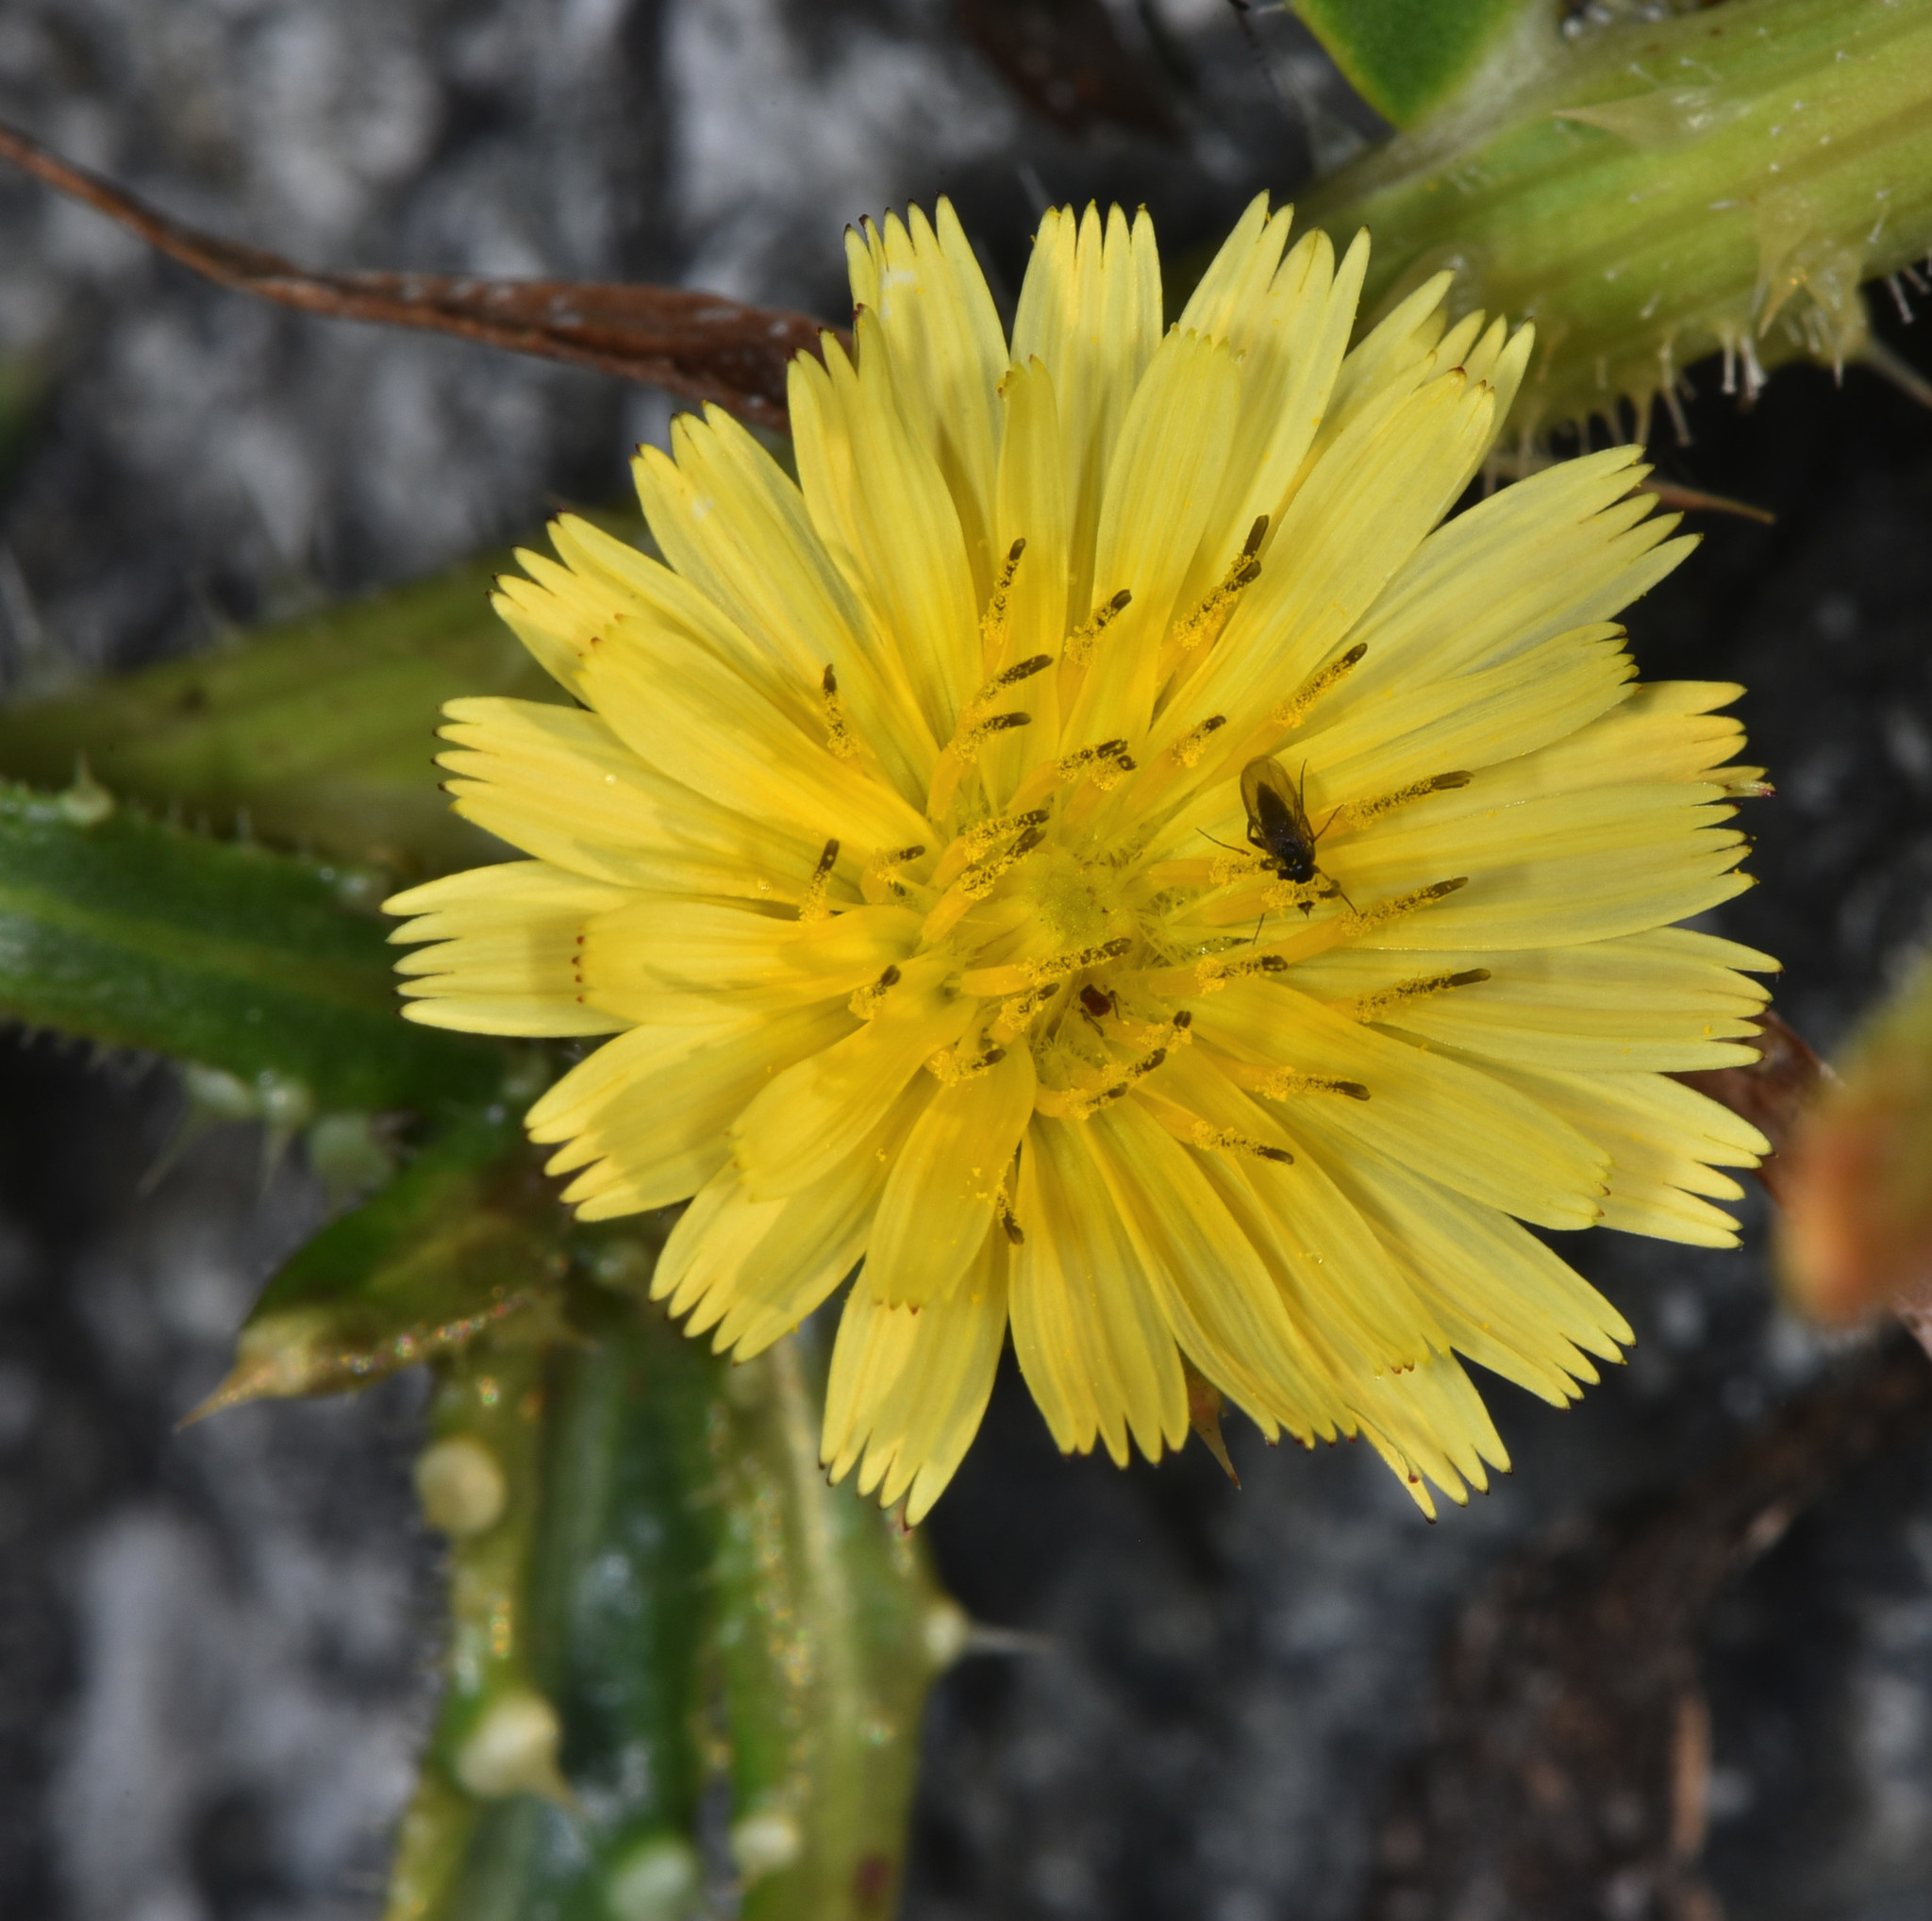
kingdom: Plantae
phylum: Tracheophyta
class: Magnoliopsida
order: Asterales
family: Asteraceae
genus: Helminthotheca
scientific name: Helminthotheca echioides
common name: Ox-tongue
